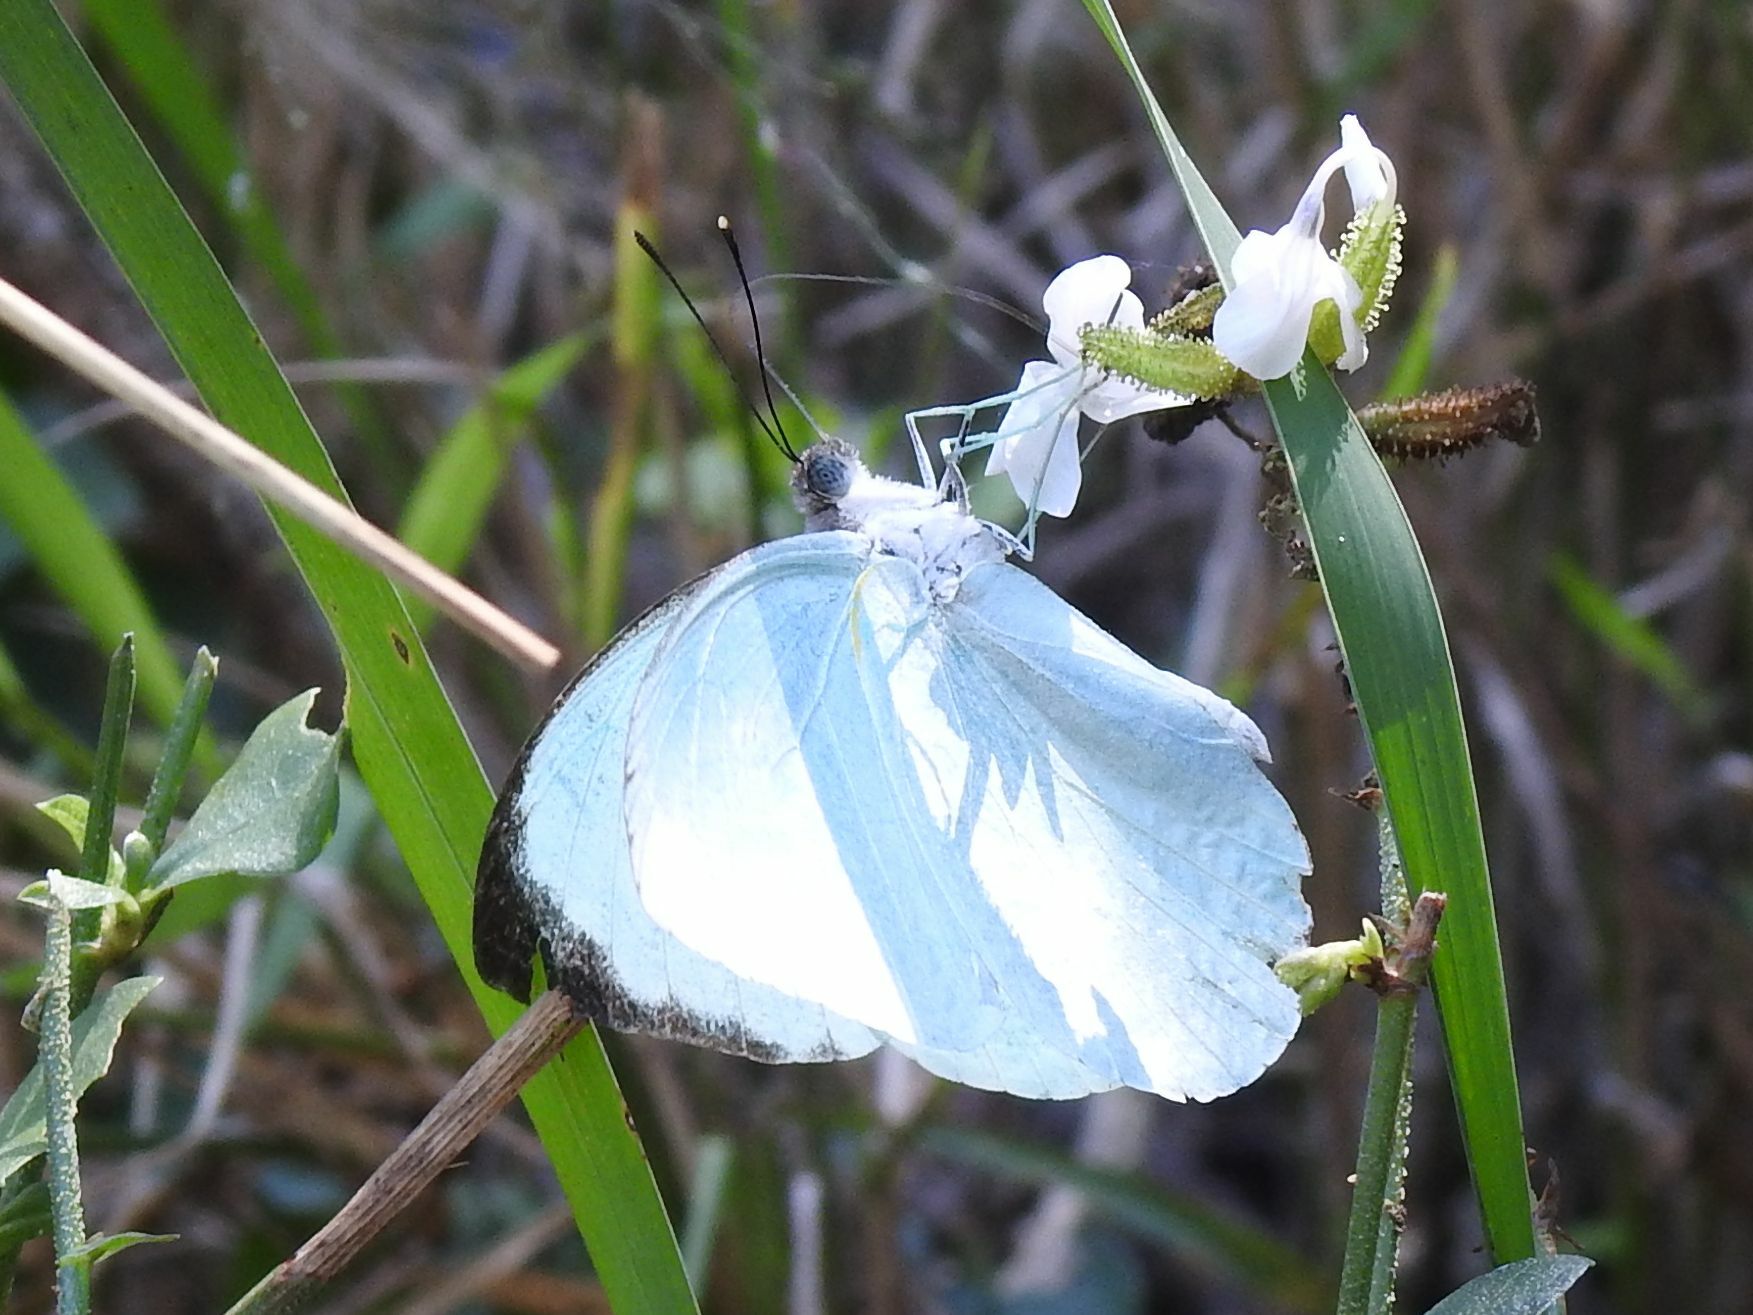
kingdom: Animalia
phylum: Arthropoda
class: Insecta
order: Lepidoptera
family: Pieridae
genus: Nepheronia
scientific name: Nepheronia argia
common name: Large vagrant
